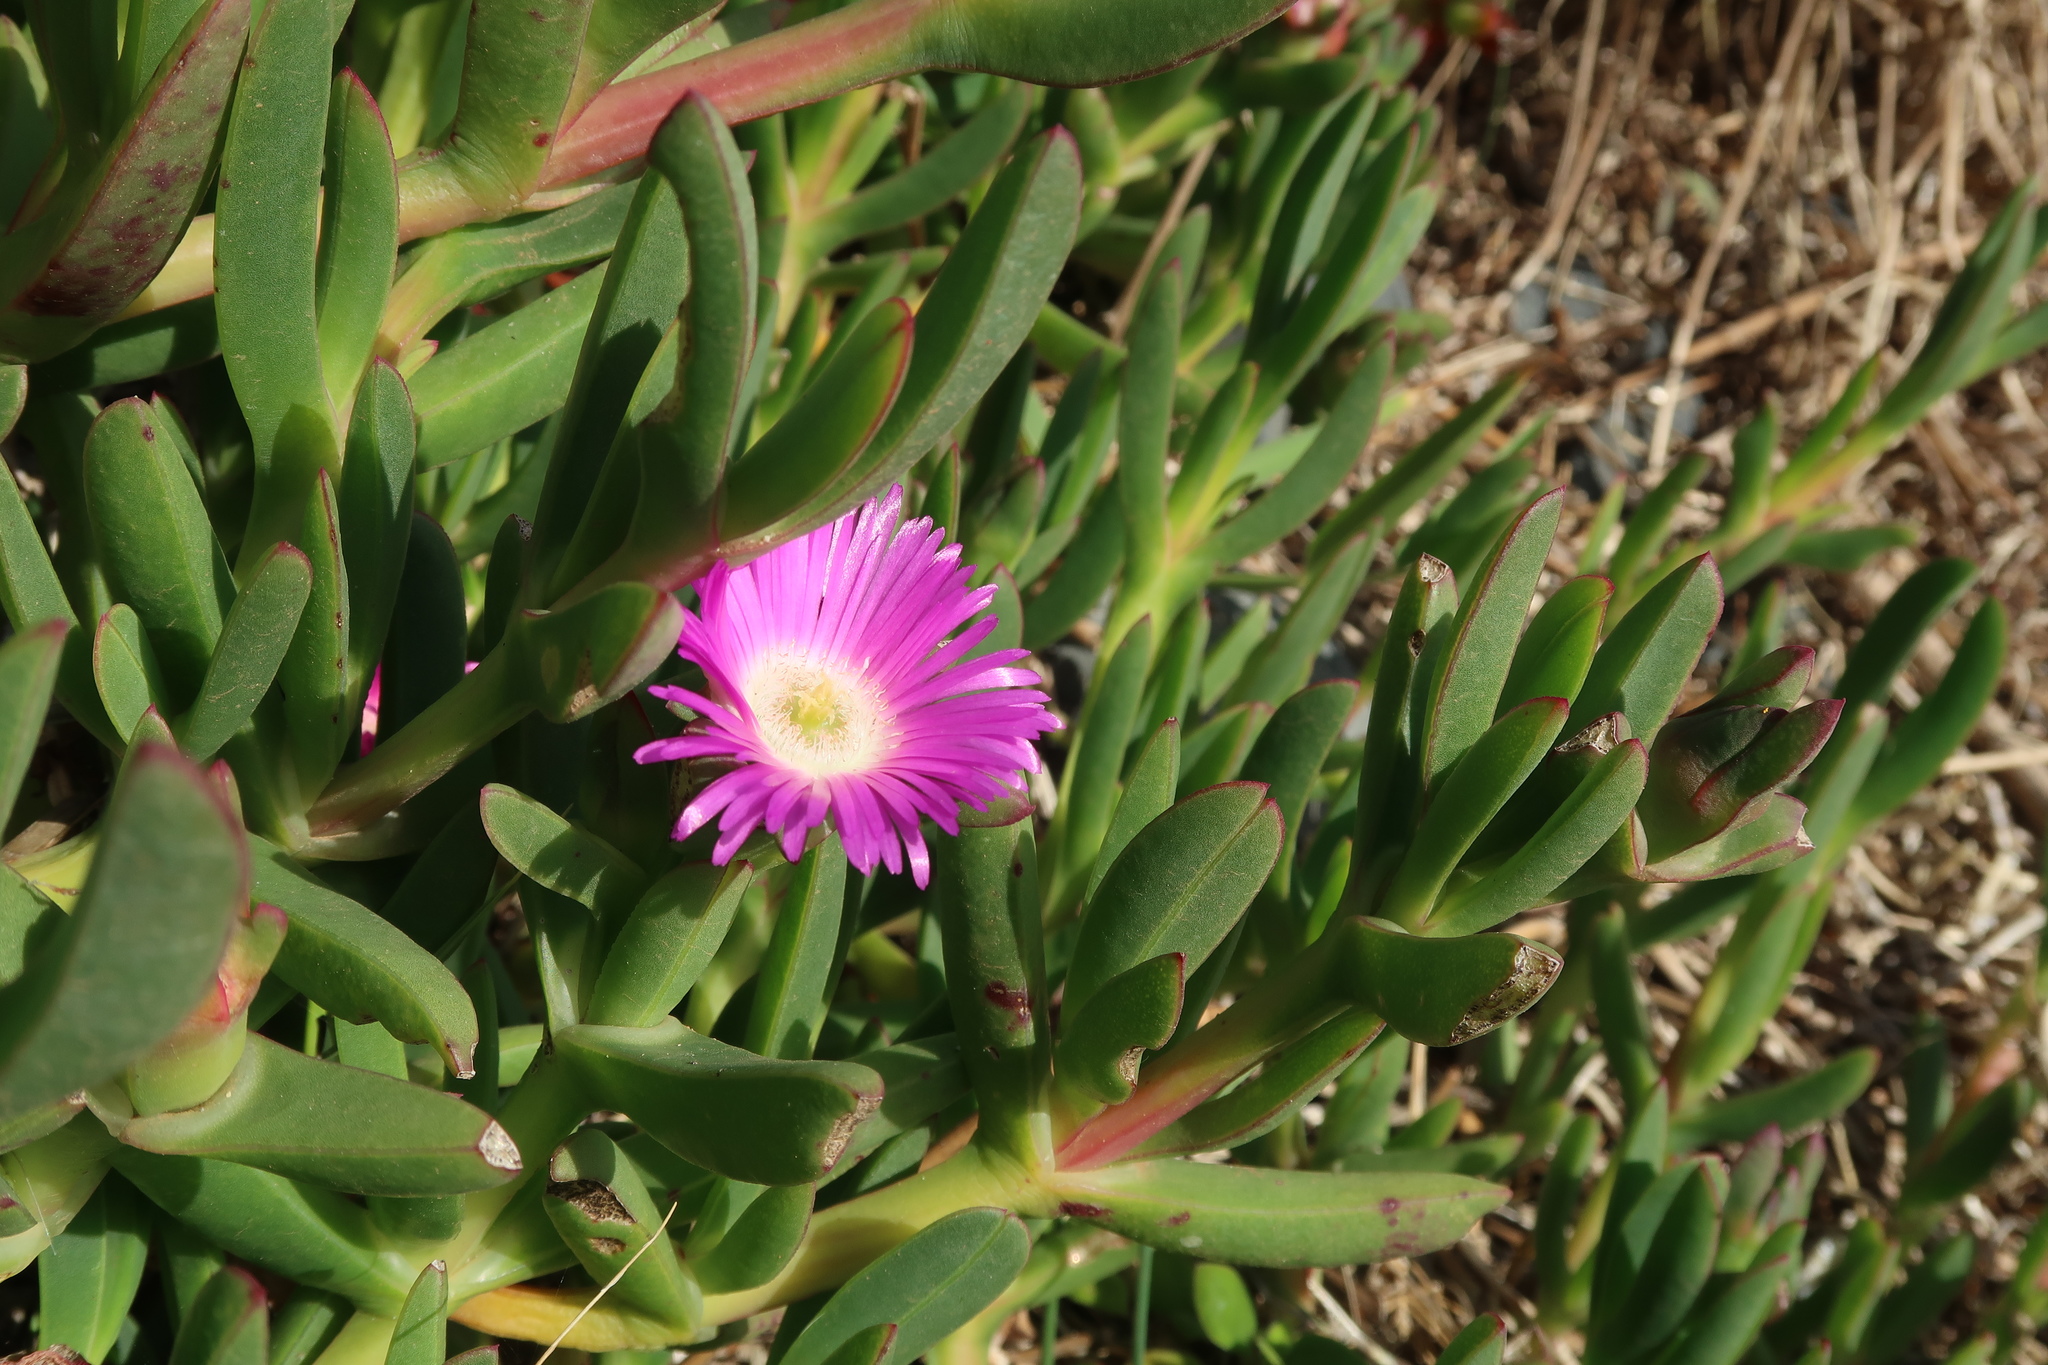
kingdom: Plantae
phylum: Tracheophyta
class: Magnoliopsida
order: Caryophyllales
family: Aizoaceae
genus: Carpobrotus
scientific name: Carpobrotus rossii
